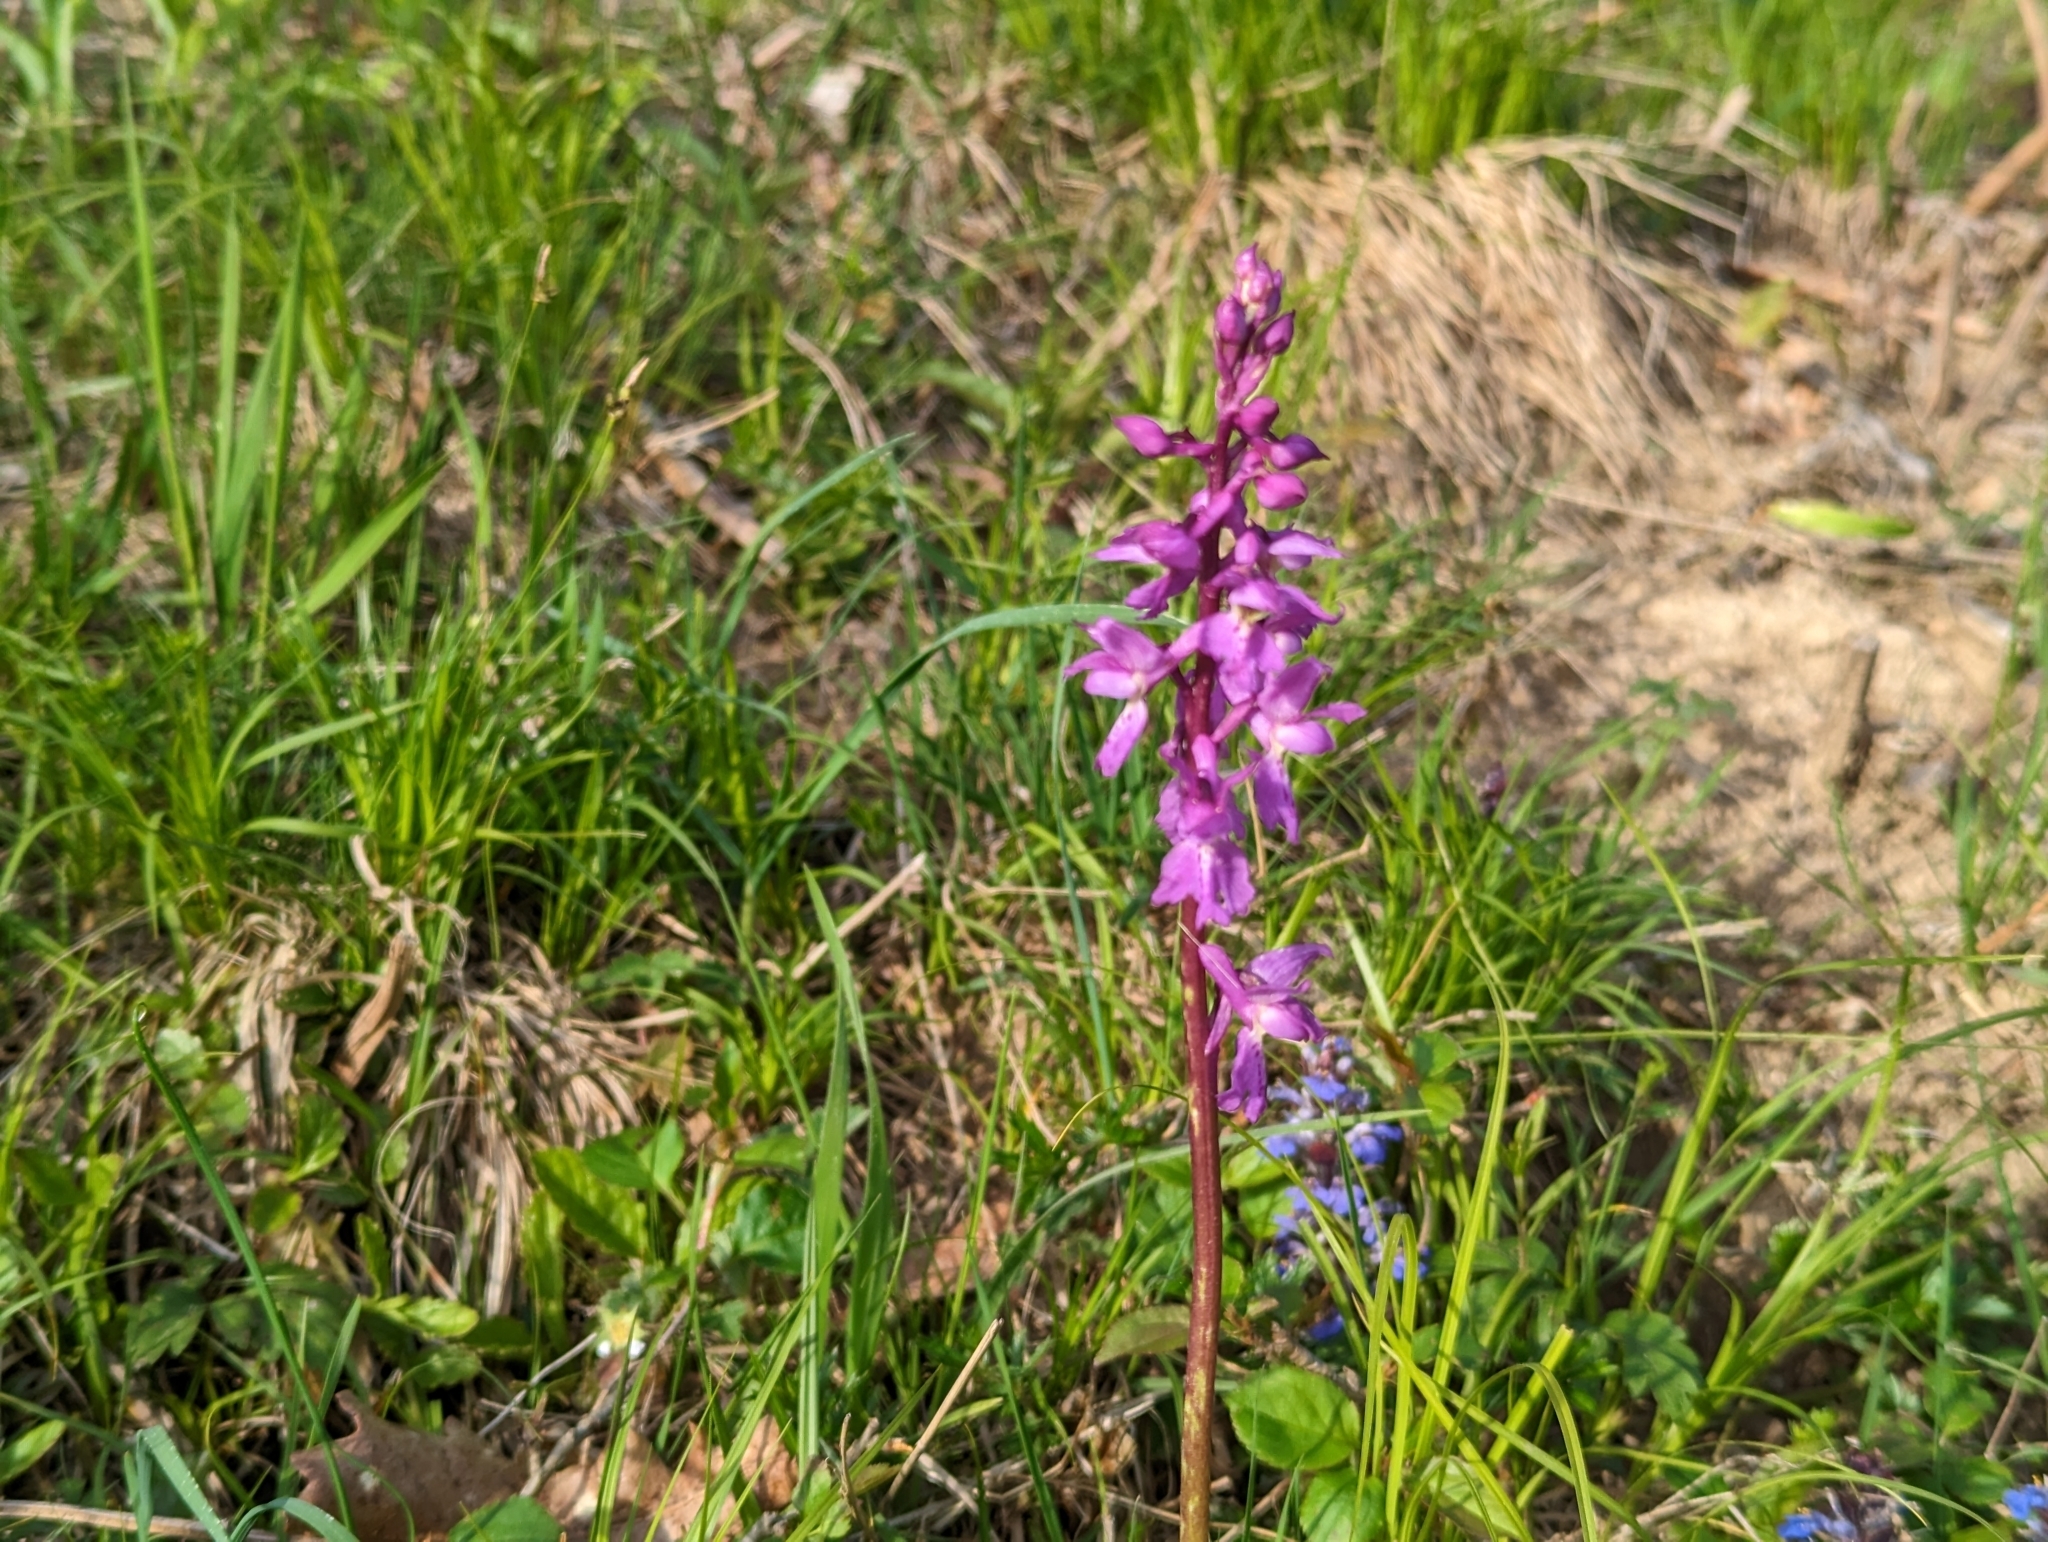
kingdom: Plantae
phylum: Tracheophyta
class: Liliopsida
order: Asparagales
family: Orchidaceae
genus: Orchis
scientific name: Orchis mascula
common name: Early-purple orchid
